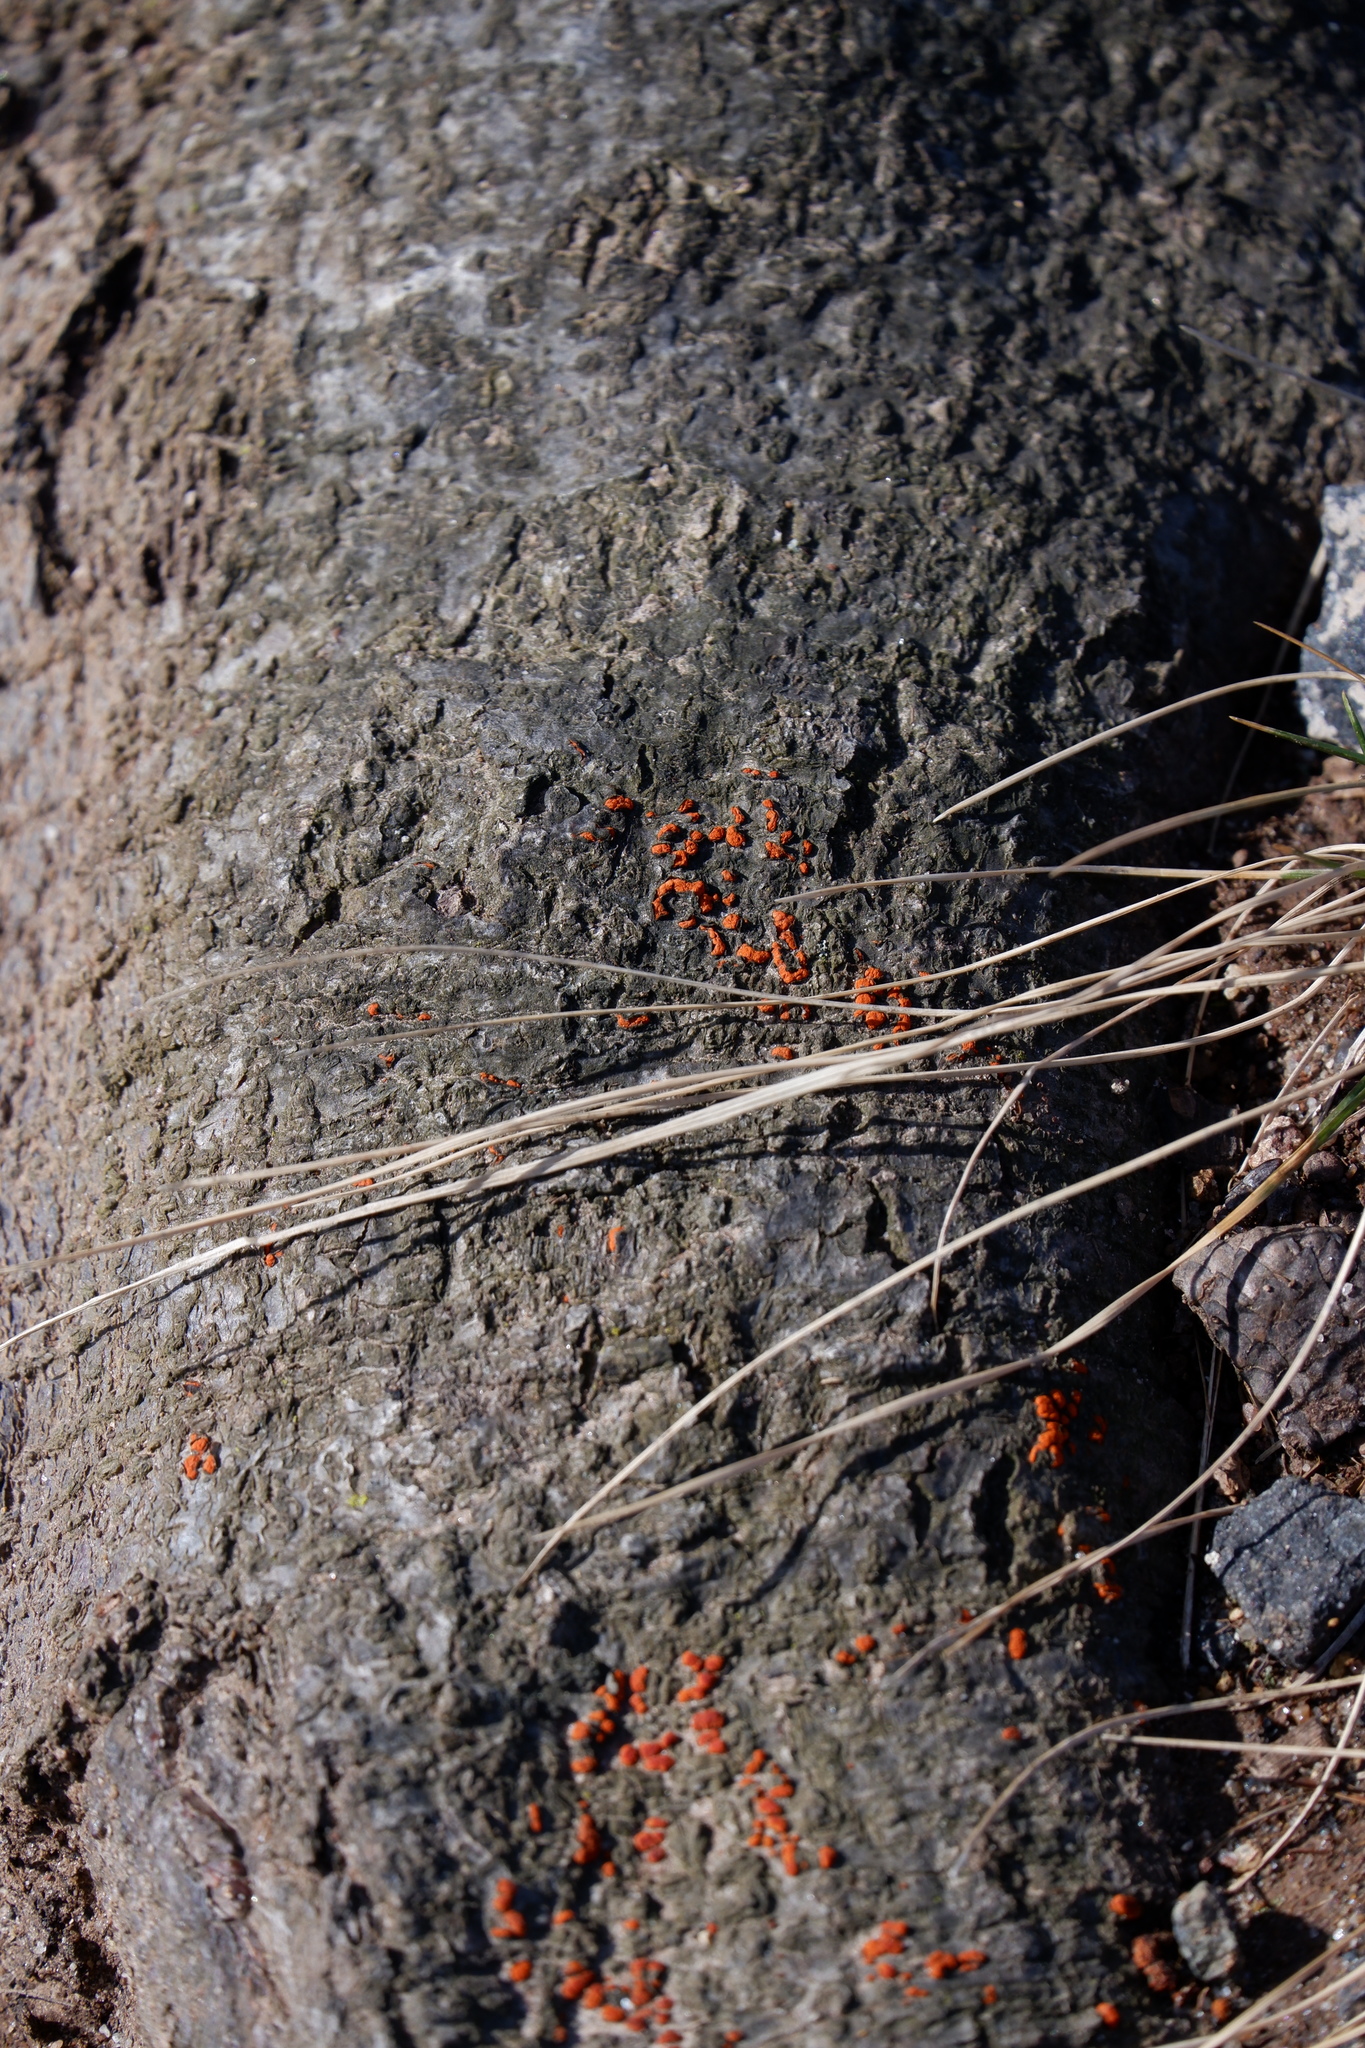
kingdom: Fungi
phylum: Ascomycota
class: Sordariomycetes
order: Diaporthales
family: Cryphonectriaceae
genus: Amphilogia
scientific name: Amphilogia gyrosa
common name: Orange hobnail canker
